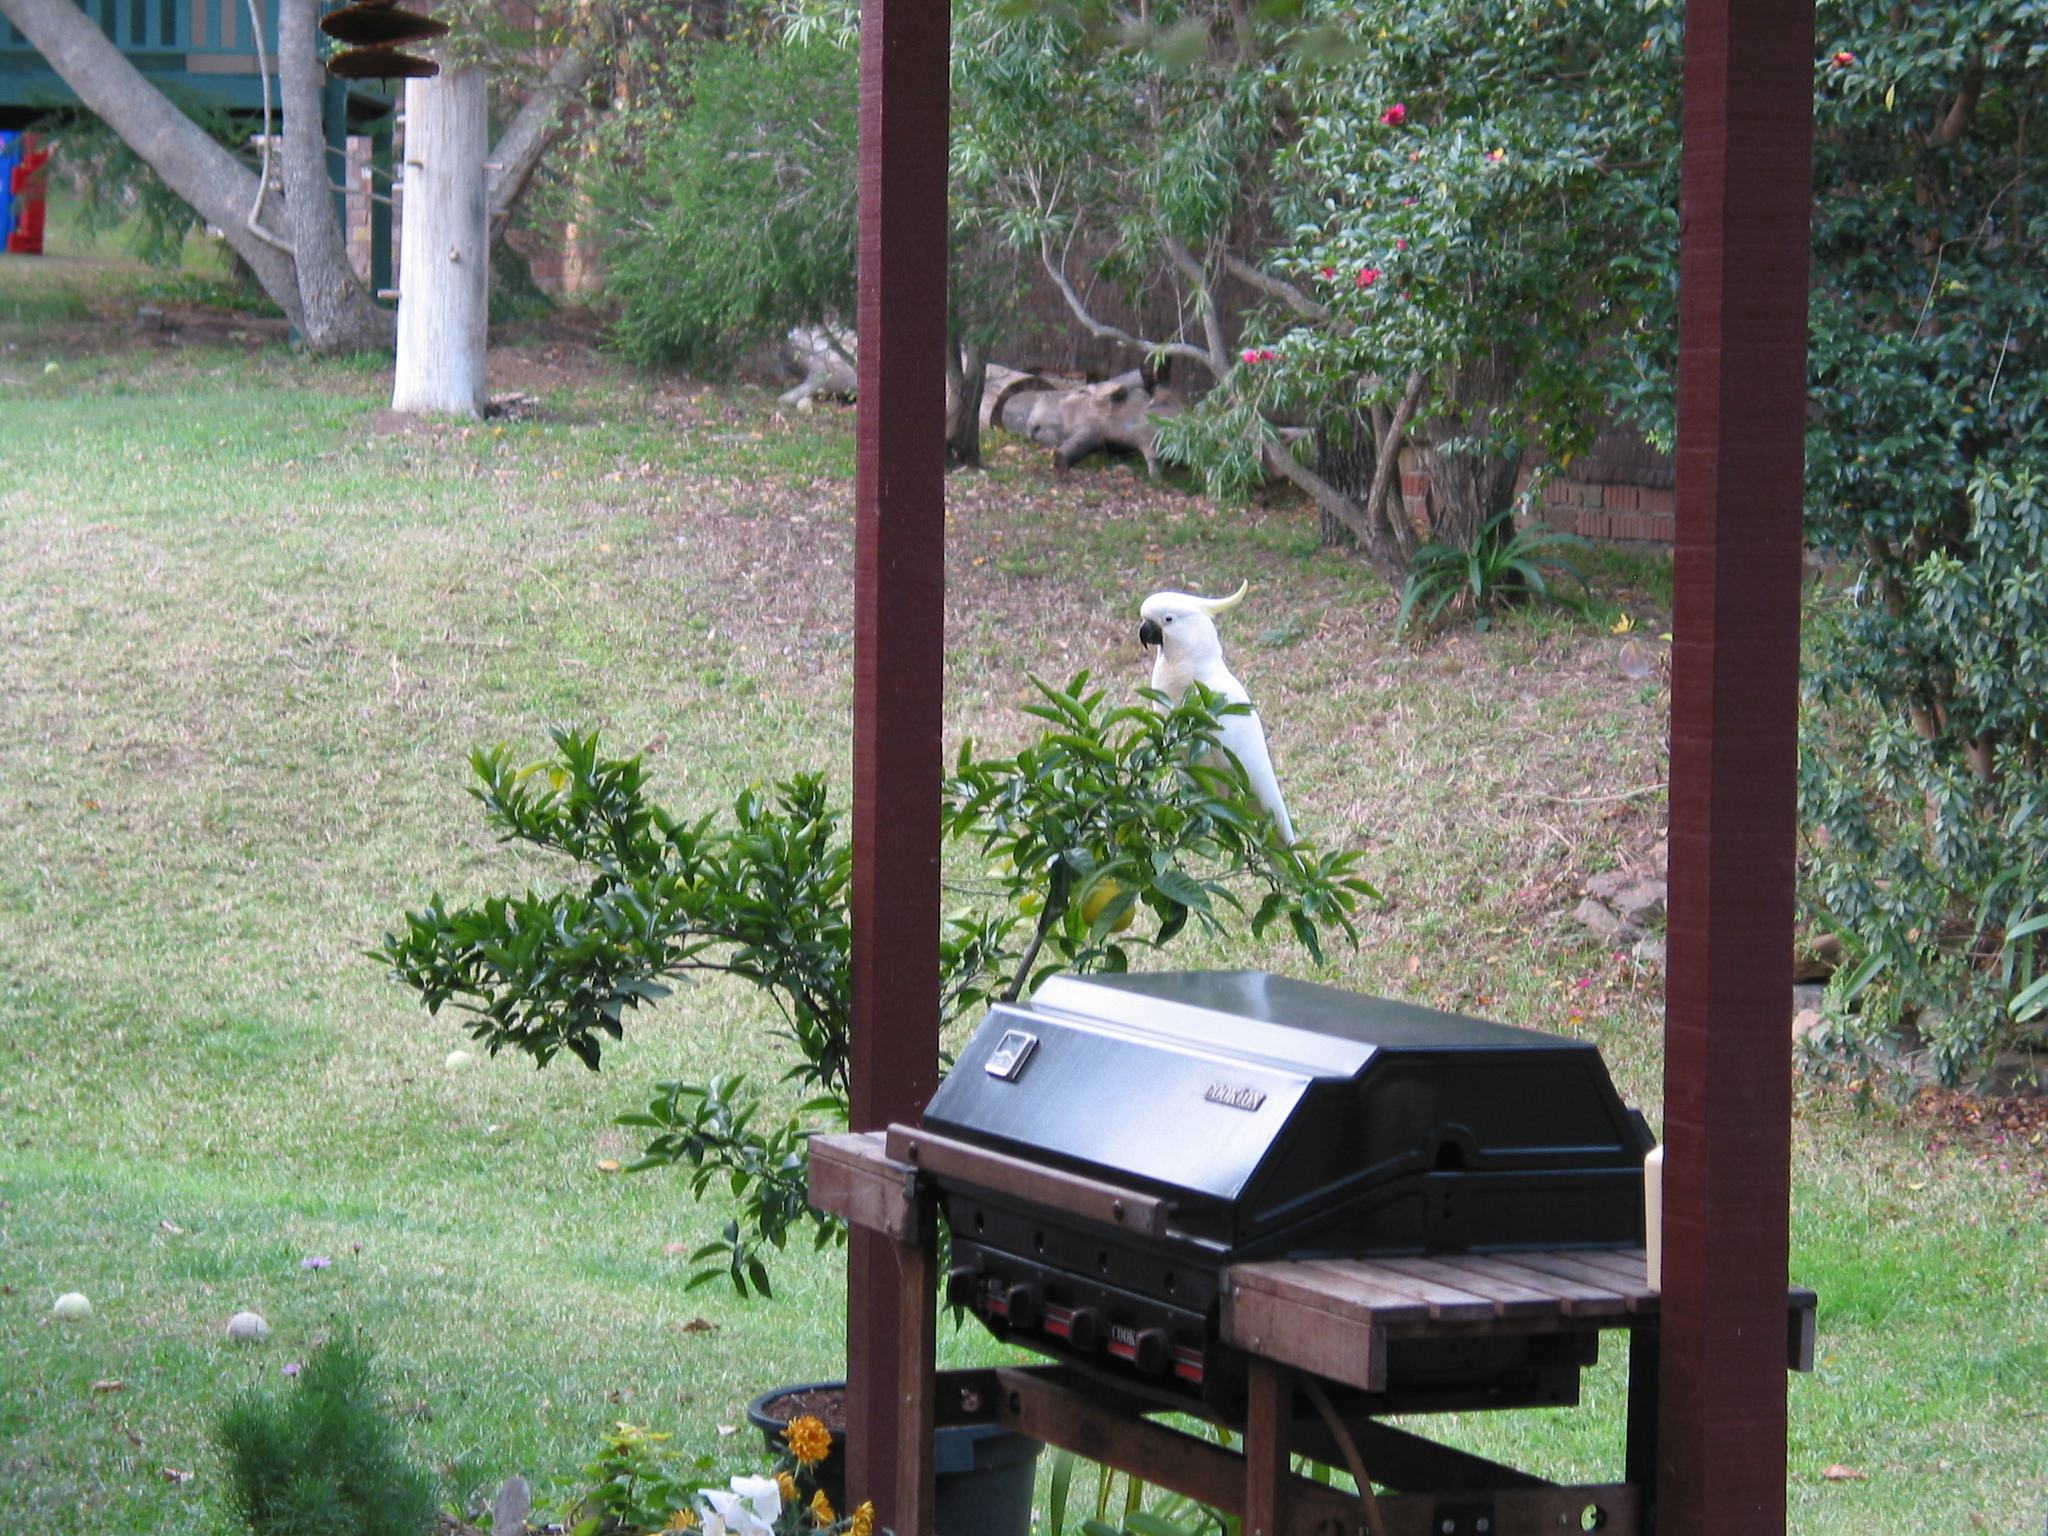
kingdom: Animalia
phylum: Chordata
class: Aves
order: Psittaciformes
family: Psittacidae
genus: Cacatua
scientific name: Cacatua galerita
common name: Sulphur-crested cockatoo
